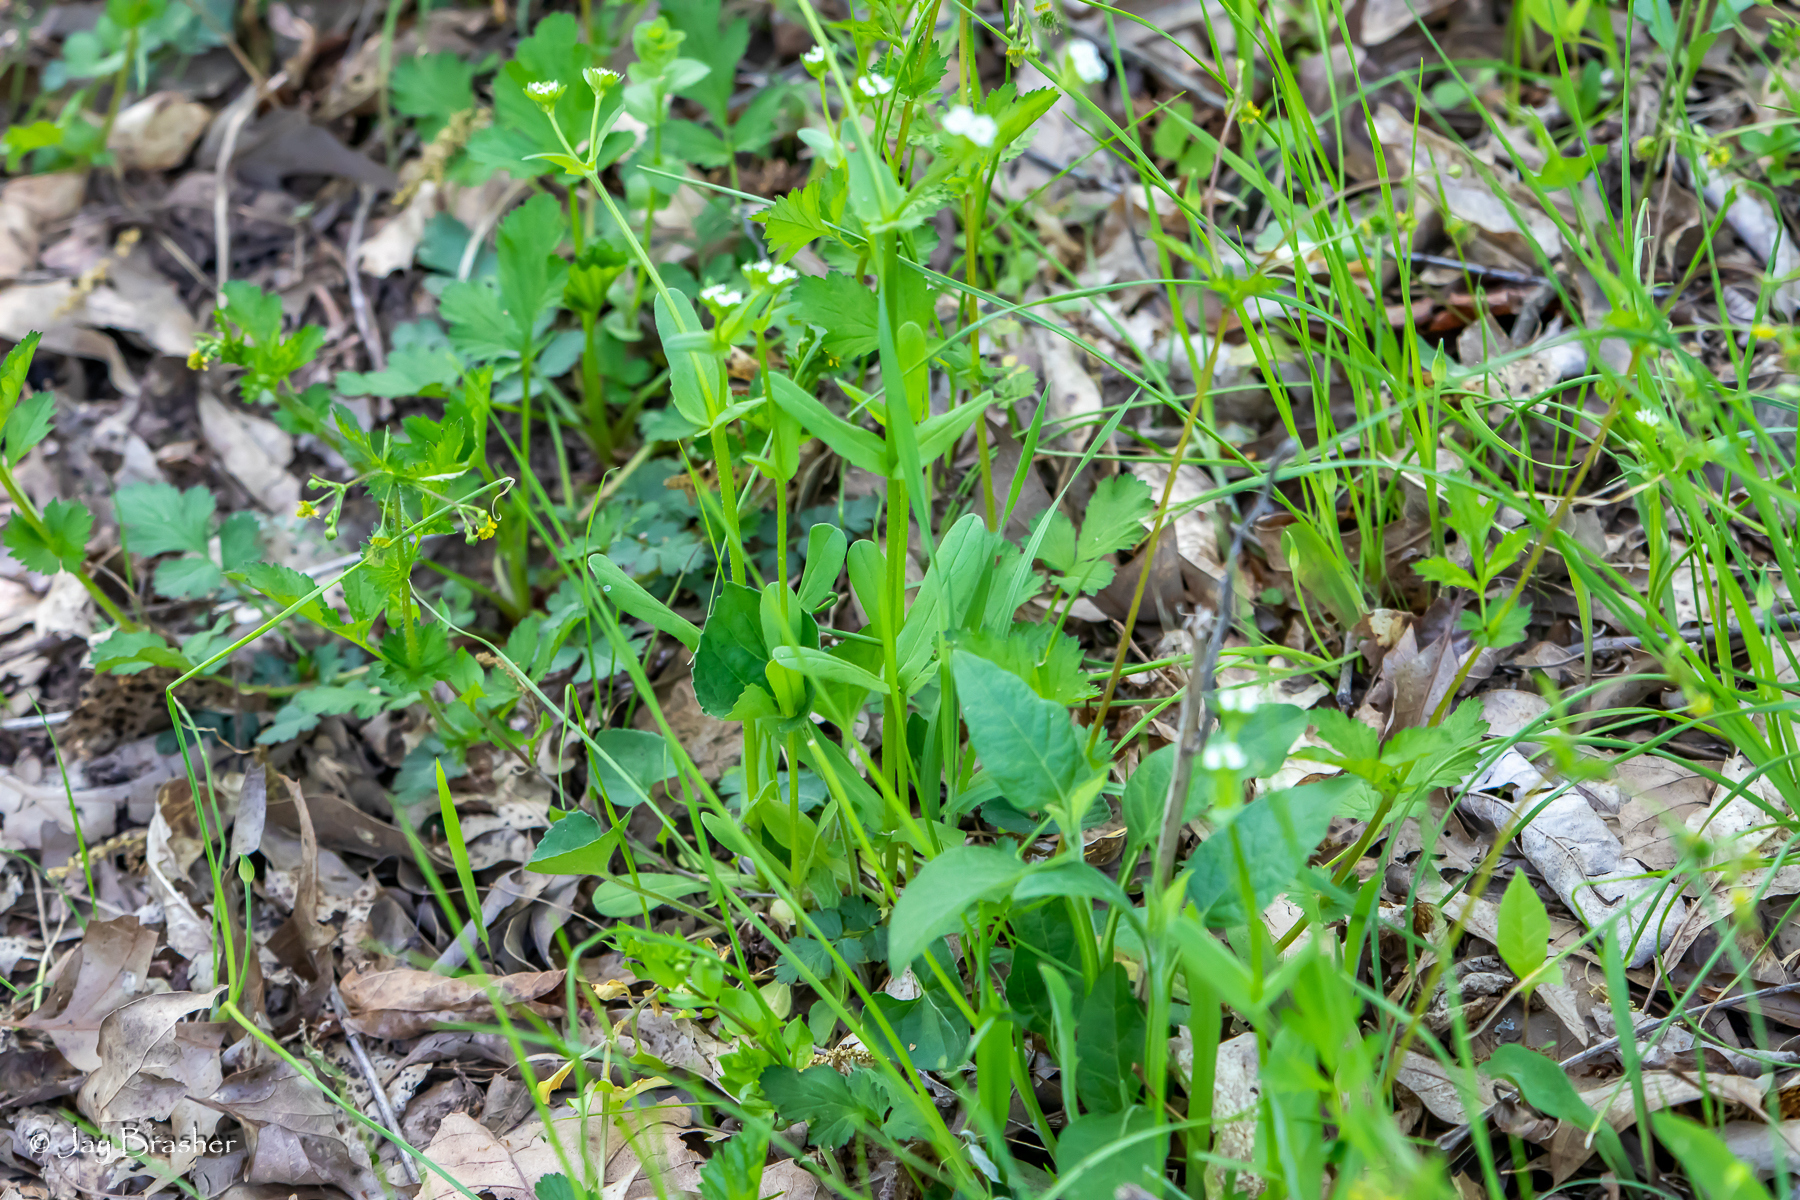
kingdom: Plantae
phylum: Tracheophyta
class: Magnoliopsida
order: Dipsacales
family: Caprifoliaceae
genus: Valerianella
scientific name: Valerianella radiata
